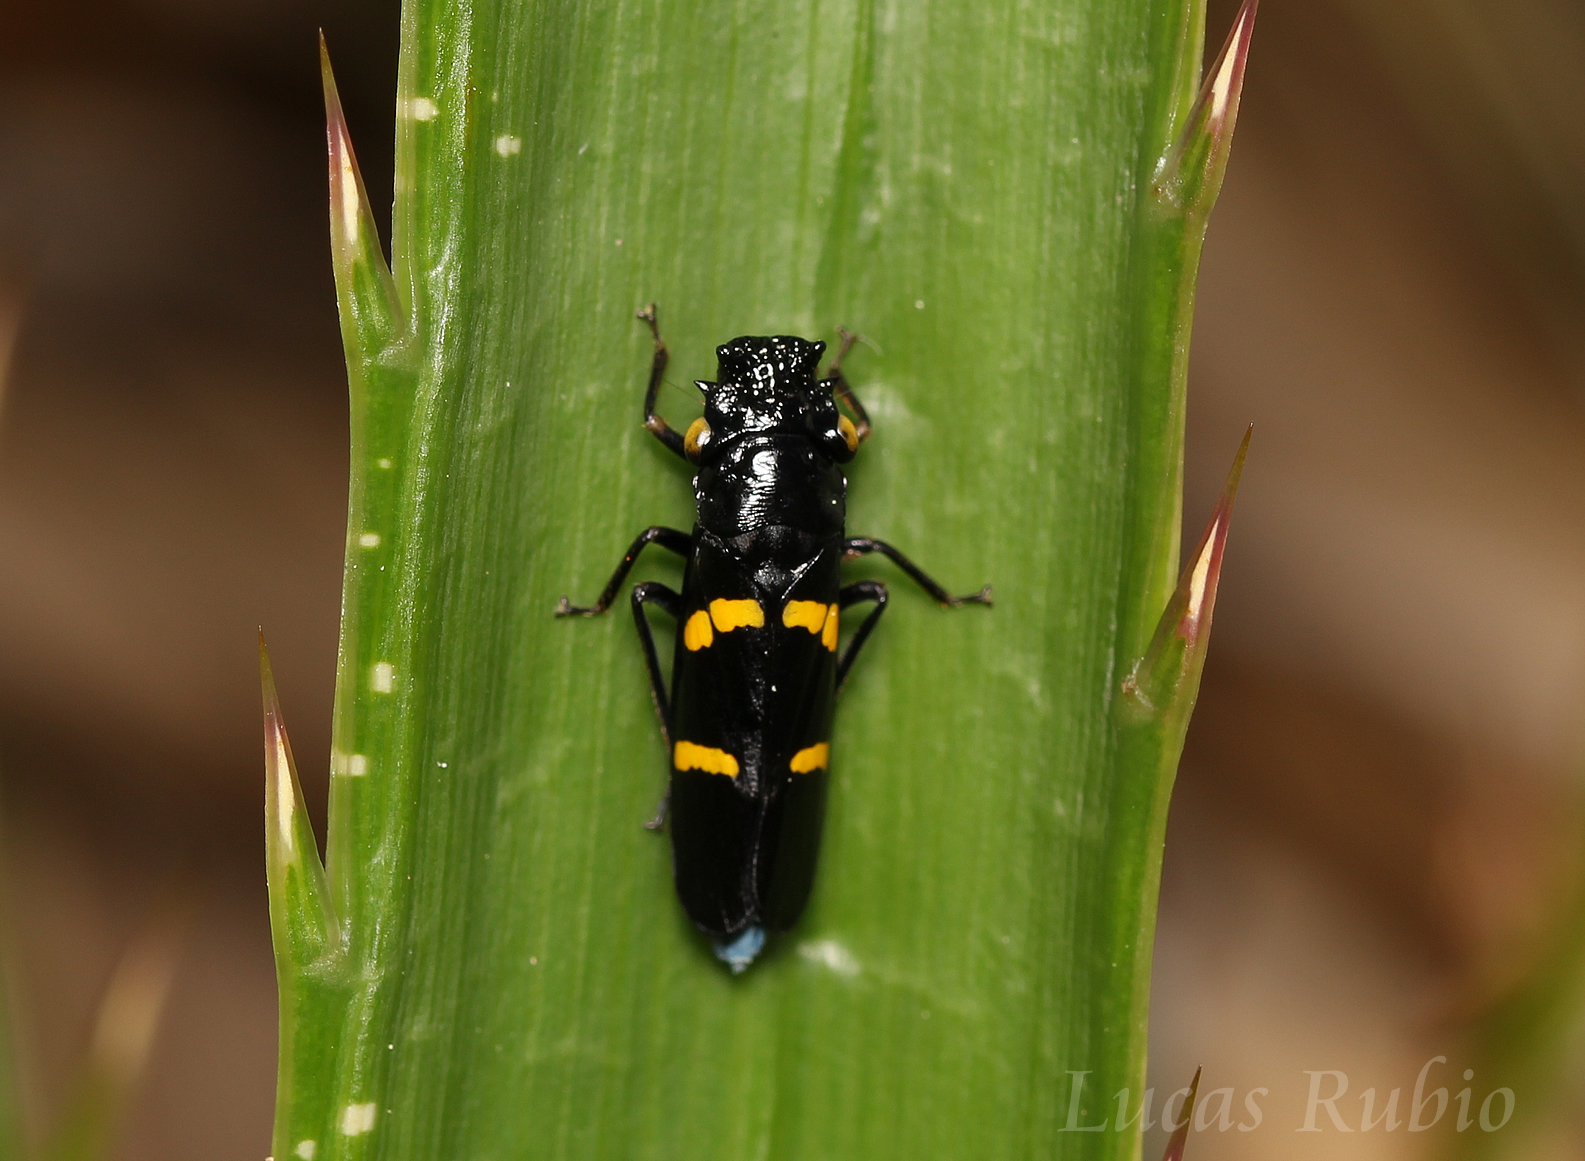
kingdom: Animalia
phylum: Arthropoda
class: Insecta
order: Hemiptera
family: Cicadellidae
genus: Ochrostacta
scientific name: Ochrostacta diadema
